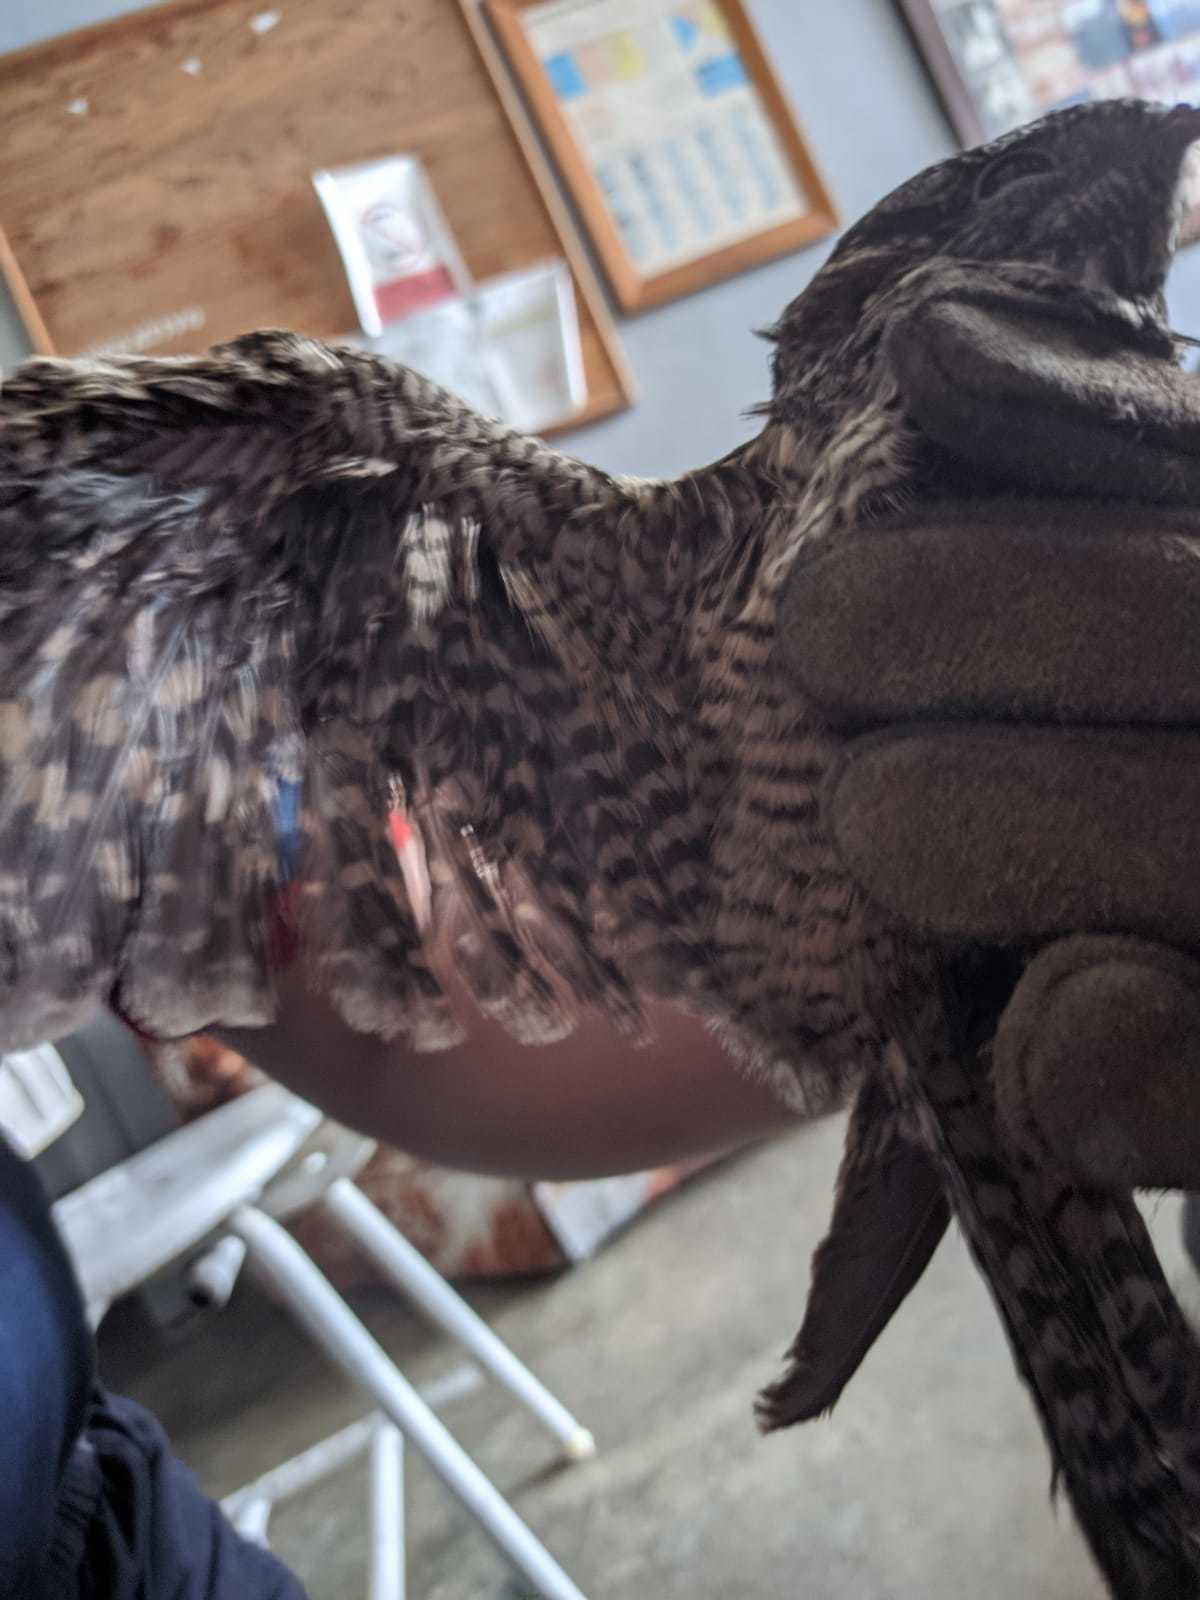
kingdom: Animalia
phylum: Chordata
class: Aves
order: Caprimulgiformes
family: Caprimulgidae
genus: Chordeiles
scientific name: Chordeiles minor
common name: Common nighthawk
